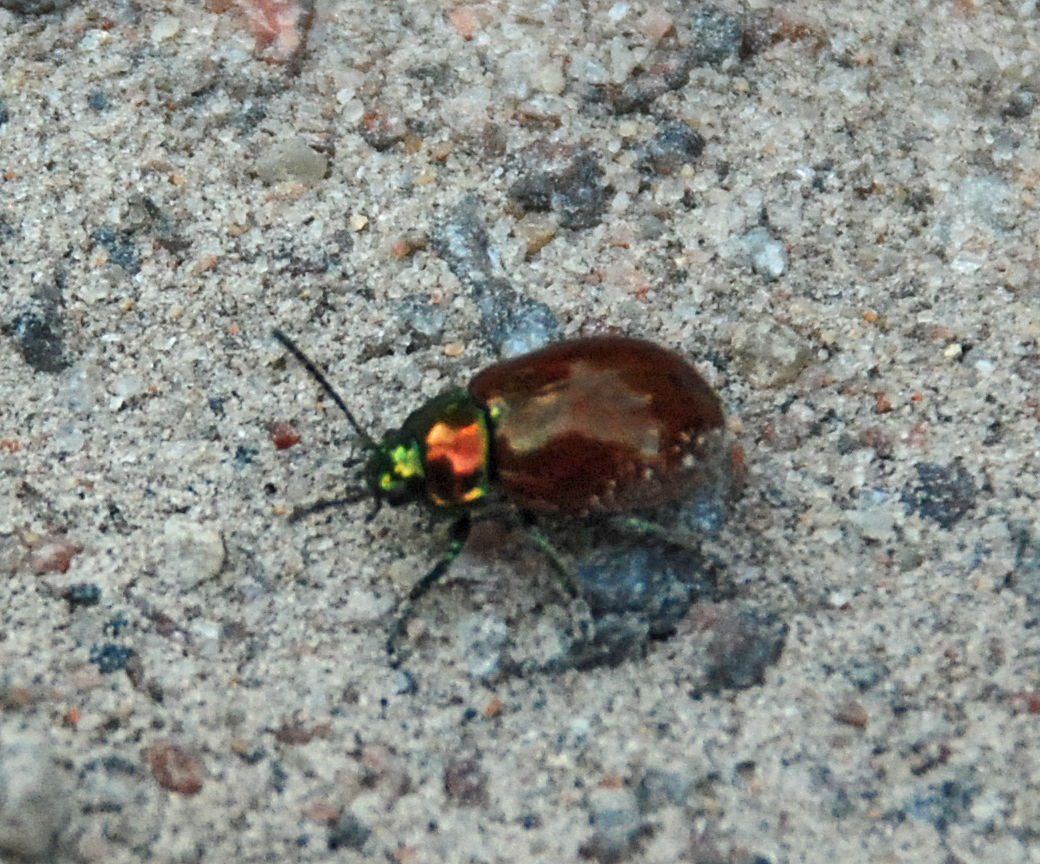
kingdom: Animalia
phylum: Arthropoda
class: Insecta
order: Coleoptera
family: Chrysomelidae
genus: Chrysomela
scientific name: Chrysomela polita
